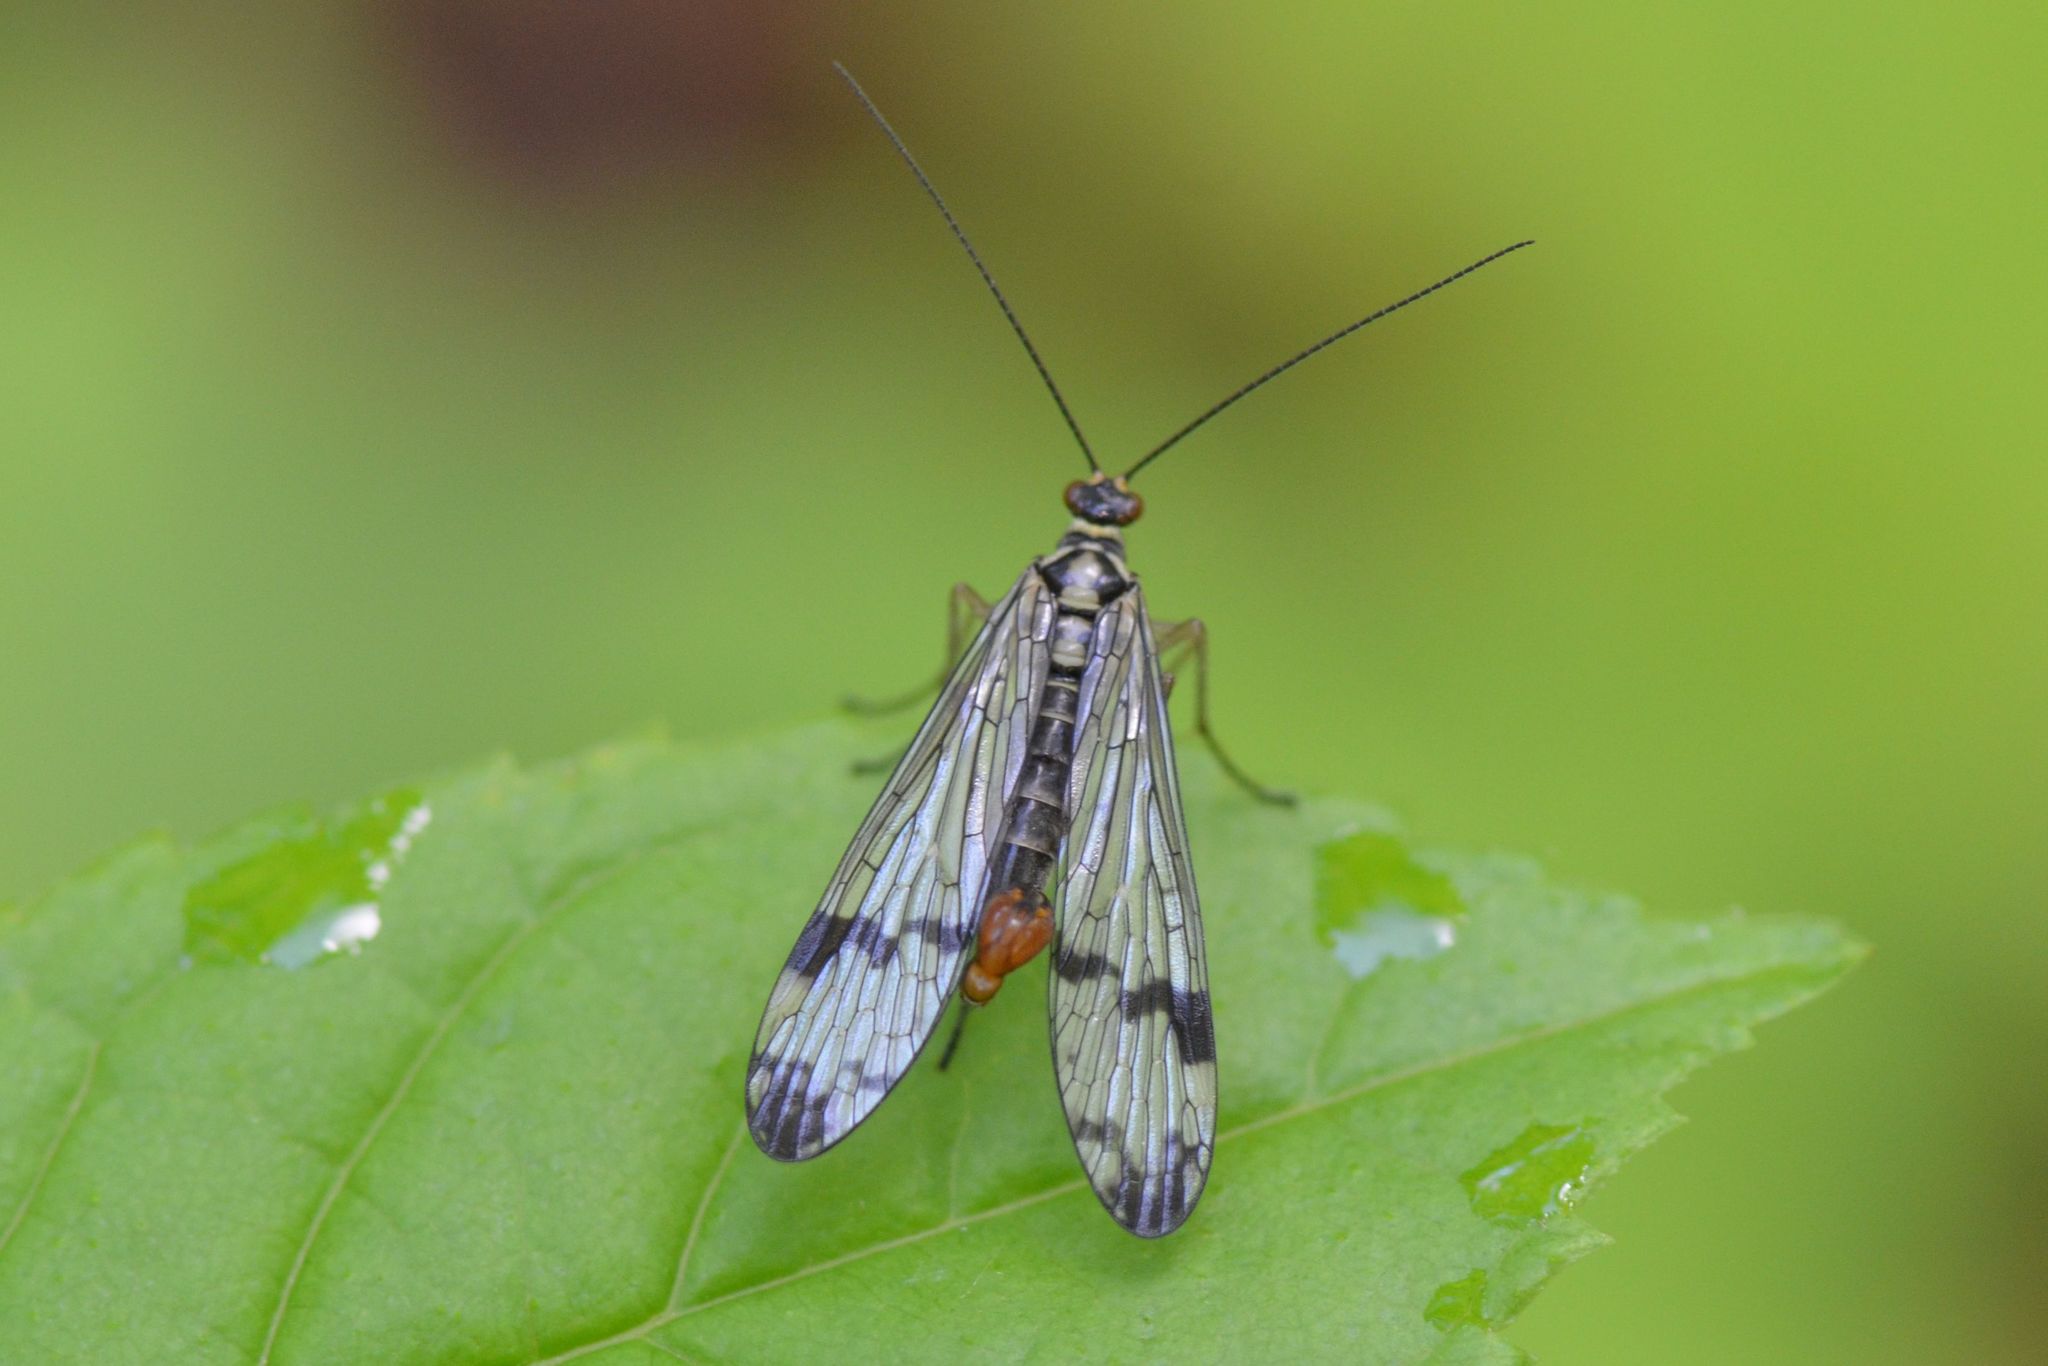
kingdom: Animalia
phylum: Arthropoda
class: Insecta
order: Mecoptera
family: Panorpidae
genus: Panorpa
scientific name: Panorpa communis
